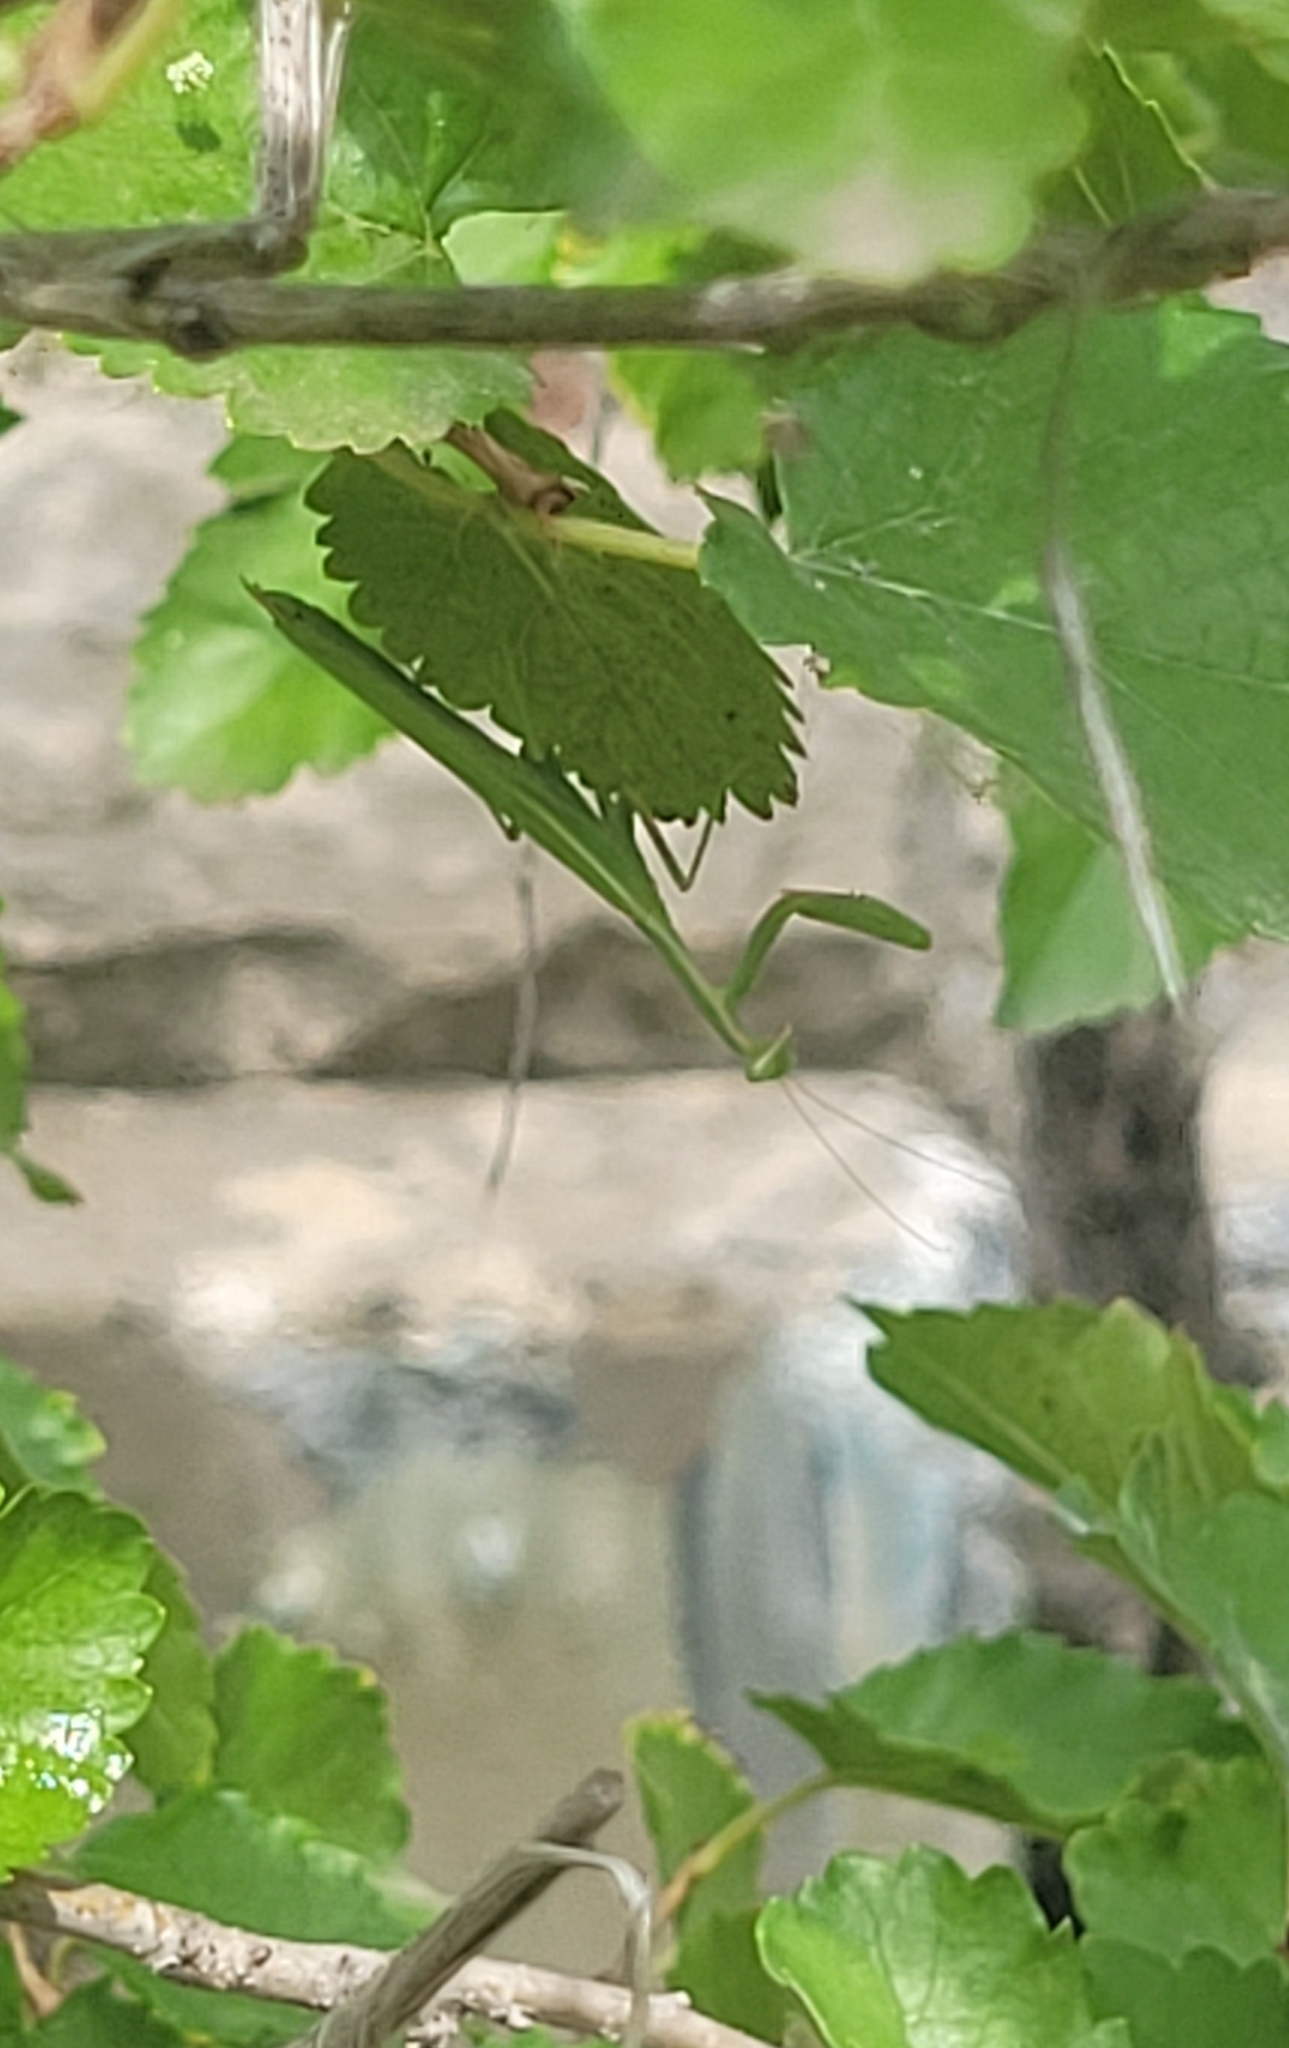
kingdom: Animalia
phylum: Arthropoda
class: Insecta
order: Mantodea
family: Eremiaphilidae
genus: Iris
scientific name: Iris polystictica
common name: Dot-winged mantis
